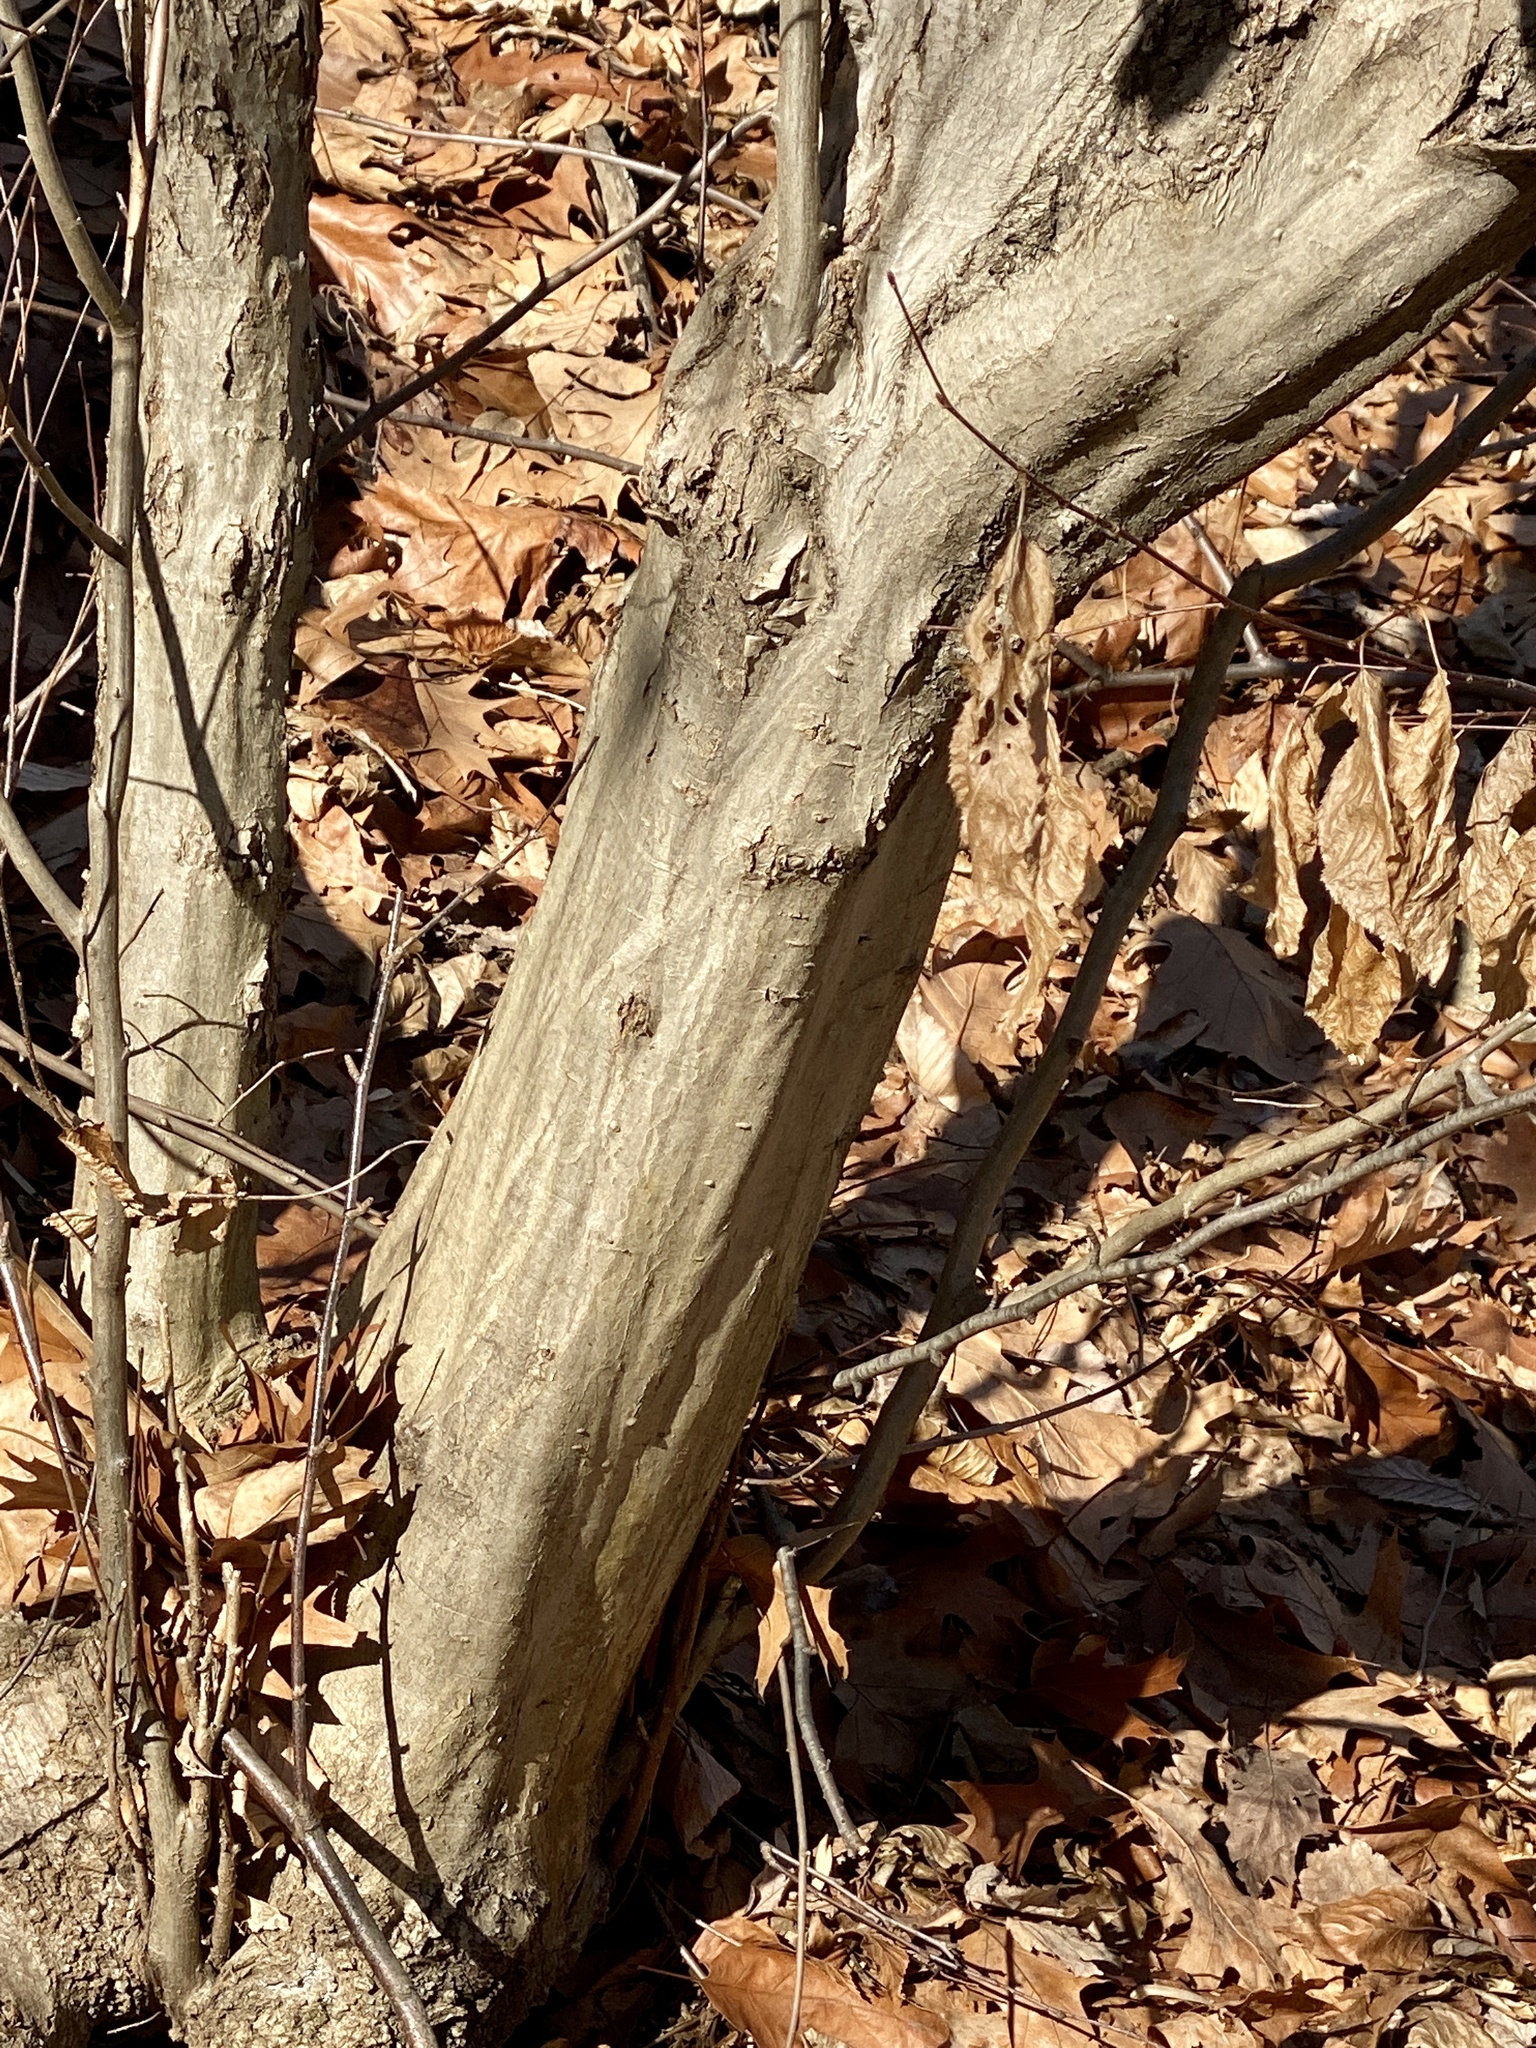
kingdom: Plantae
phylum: Tracheophyta
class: Magnoliopsida
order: Fagales
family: Betulaceae
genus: Carpinus
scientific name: Carpinus caroliniana
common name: American hornbeam
